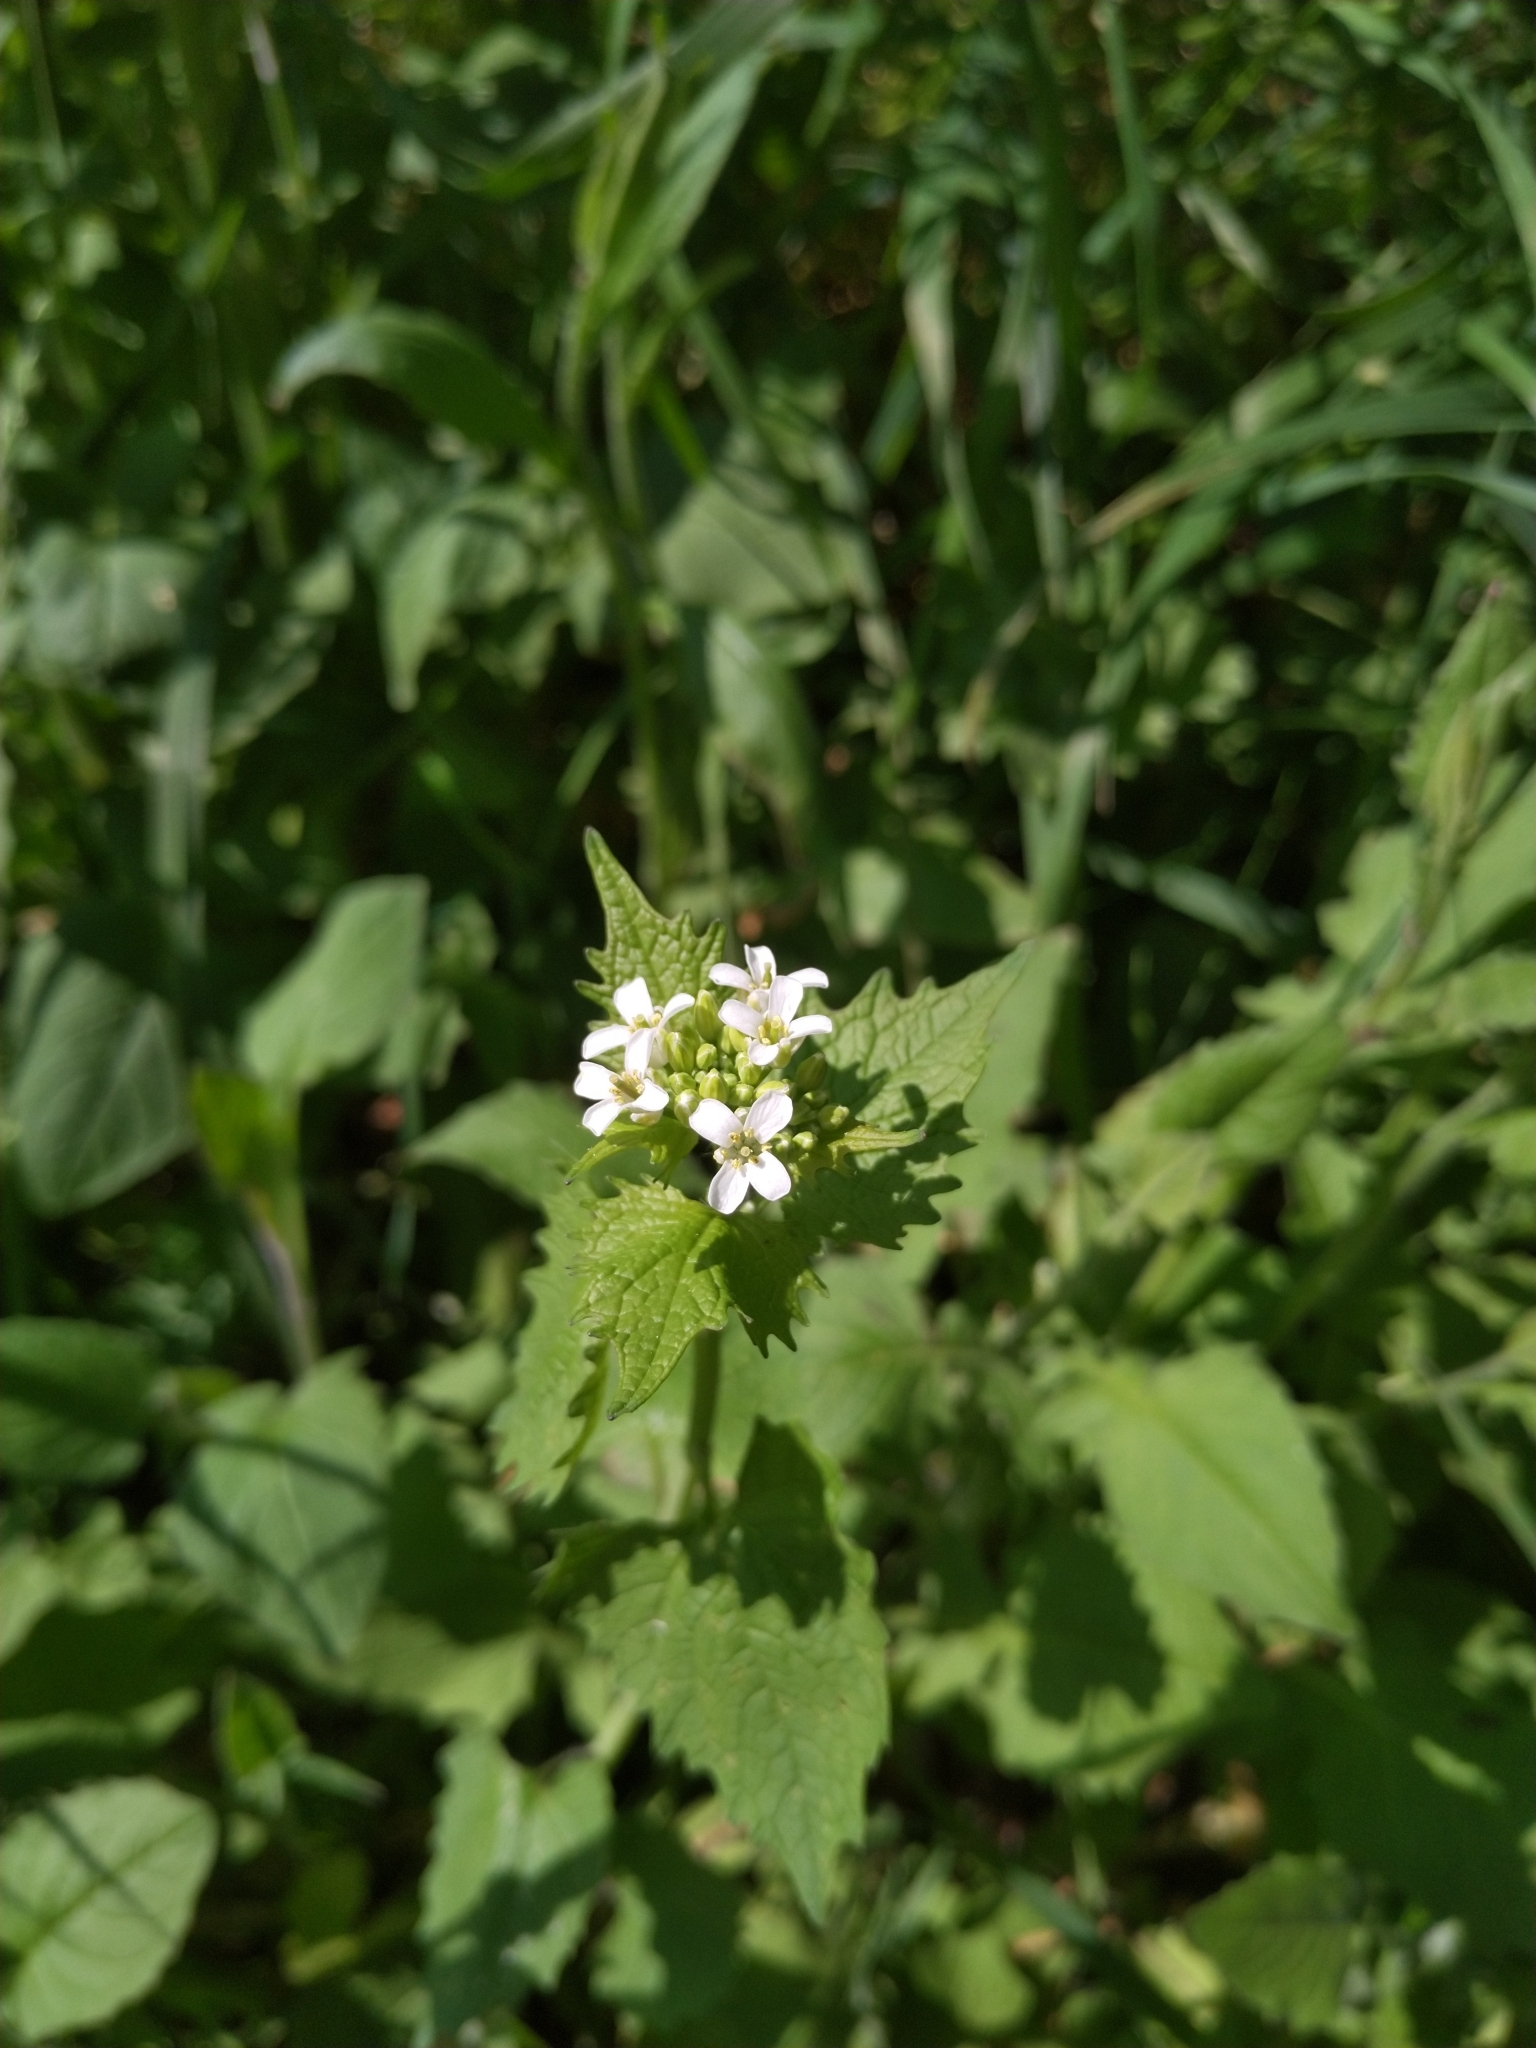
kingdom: Plantae
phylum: Tracheophyta
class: Magnoliopsida
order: Brassicales
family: Brassicaceae
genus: Alliaria
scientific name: Alliaria petiolata
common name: Garlic mustard
